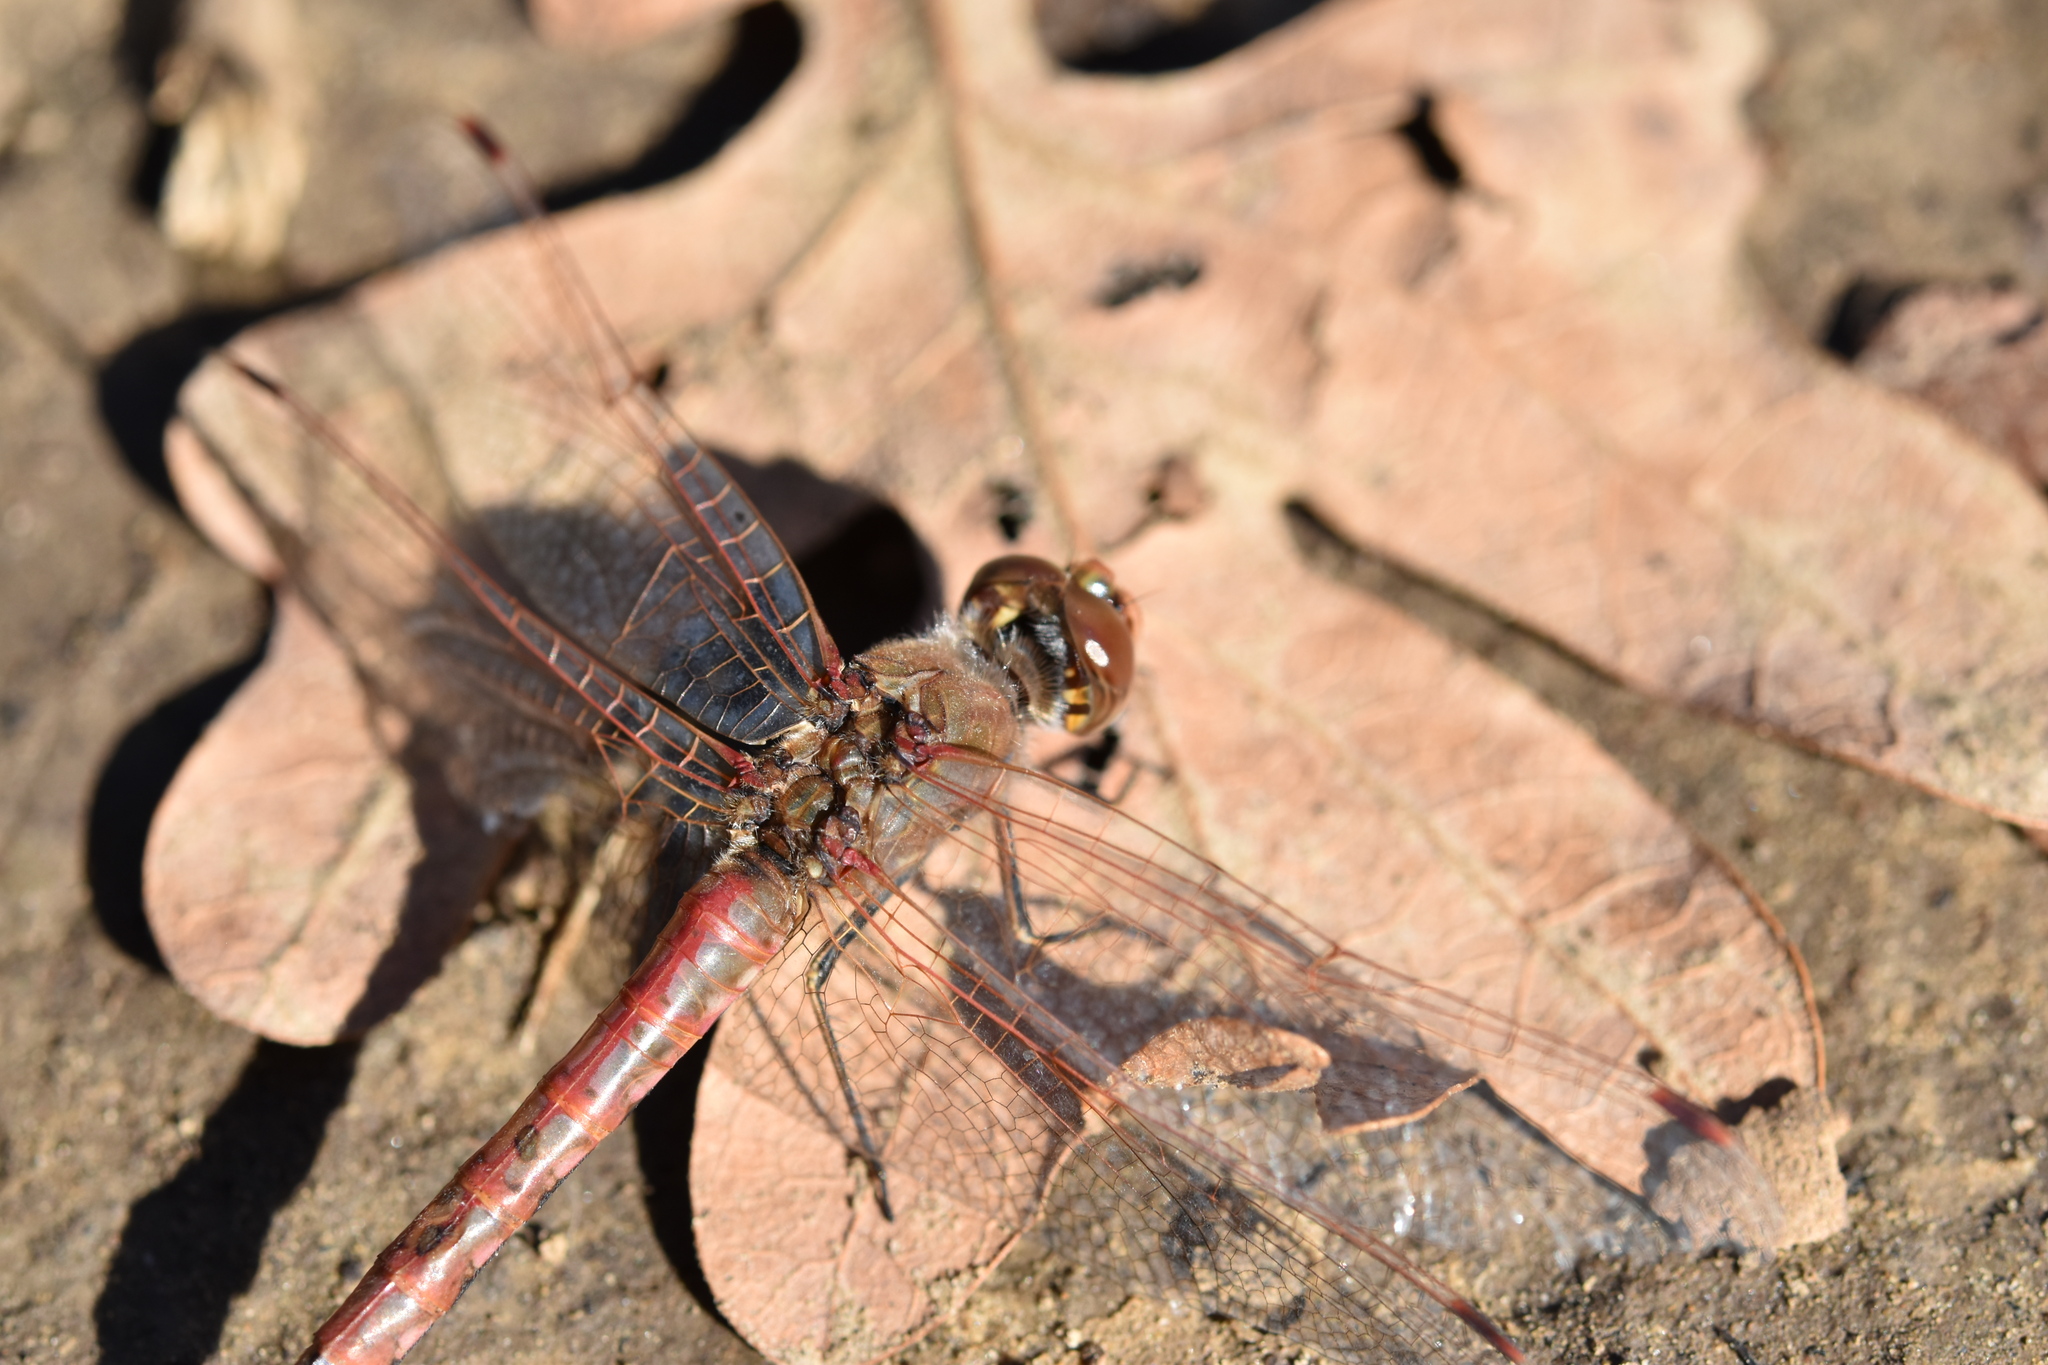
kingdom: Animalia
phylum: Arthropoda
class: Insecta
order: Odonata
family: Libellulidae
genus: Sympetrum
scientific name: Sympetrum corruptum
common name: Variegated meadowhawk
